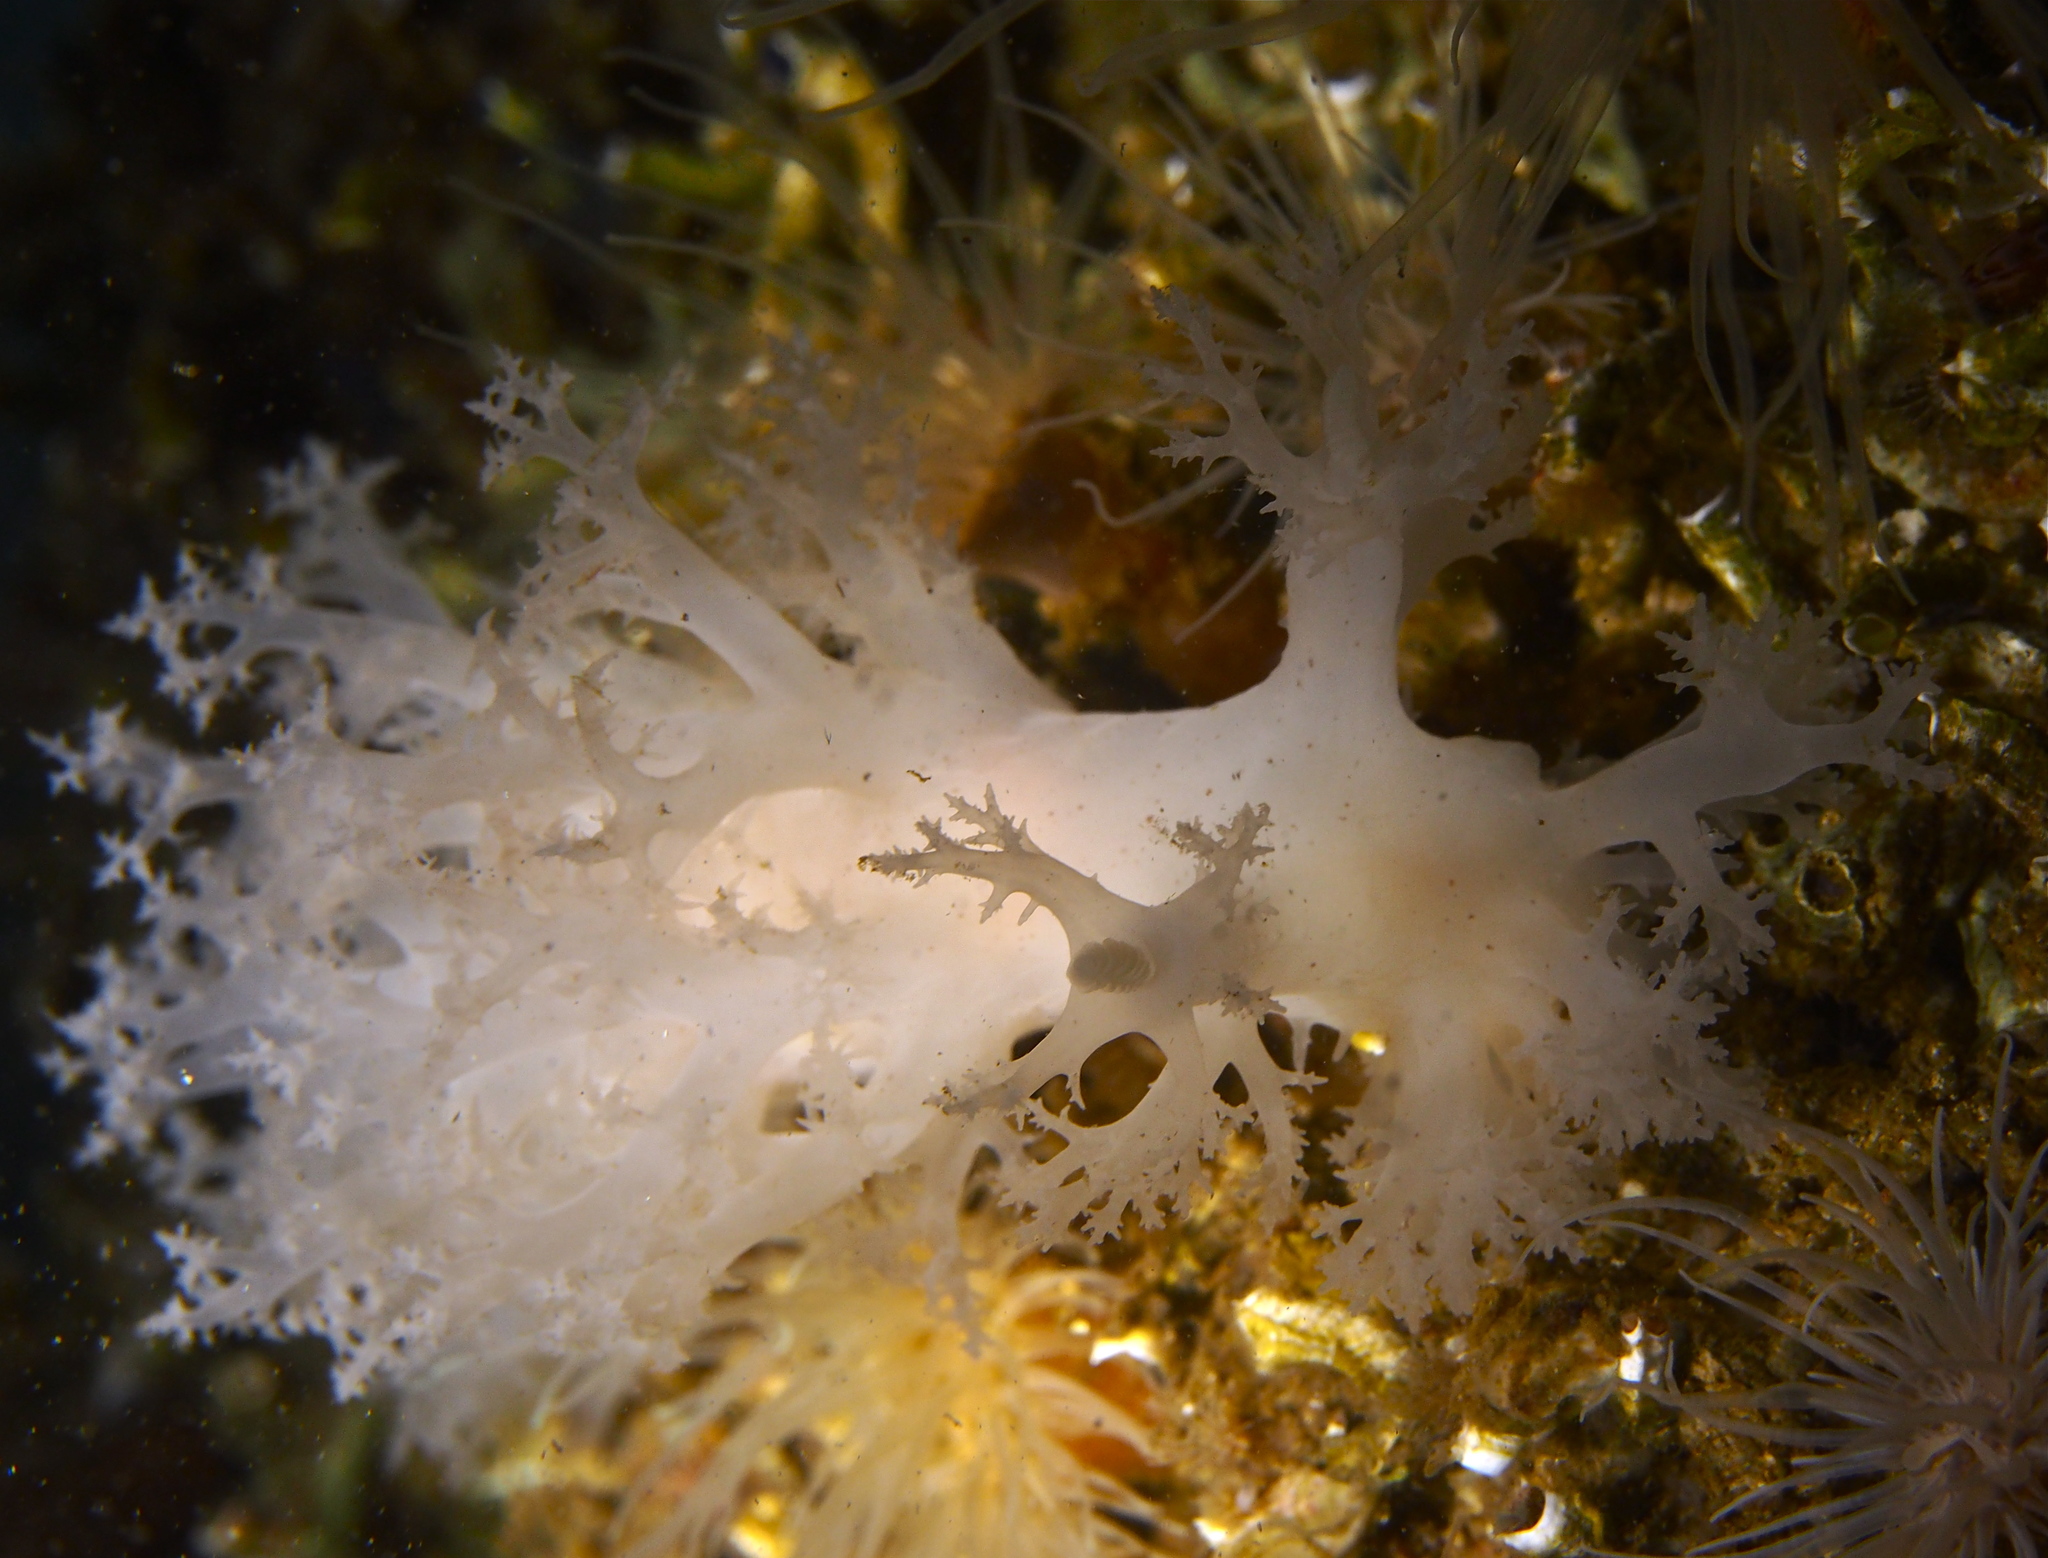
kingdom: Animalia
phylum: Mollusca
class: Gastropoda
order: Nudibranchia
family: Dendronotidae
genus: Dendronotus
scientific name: Dendronotus lacteus
